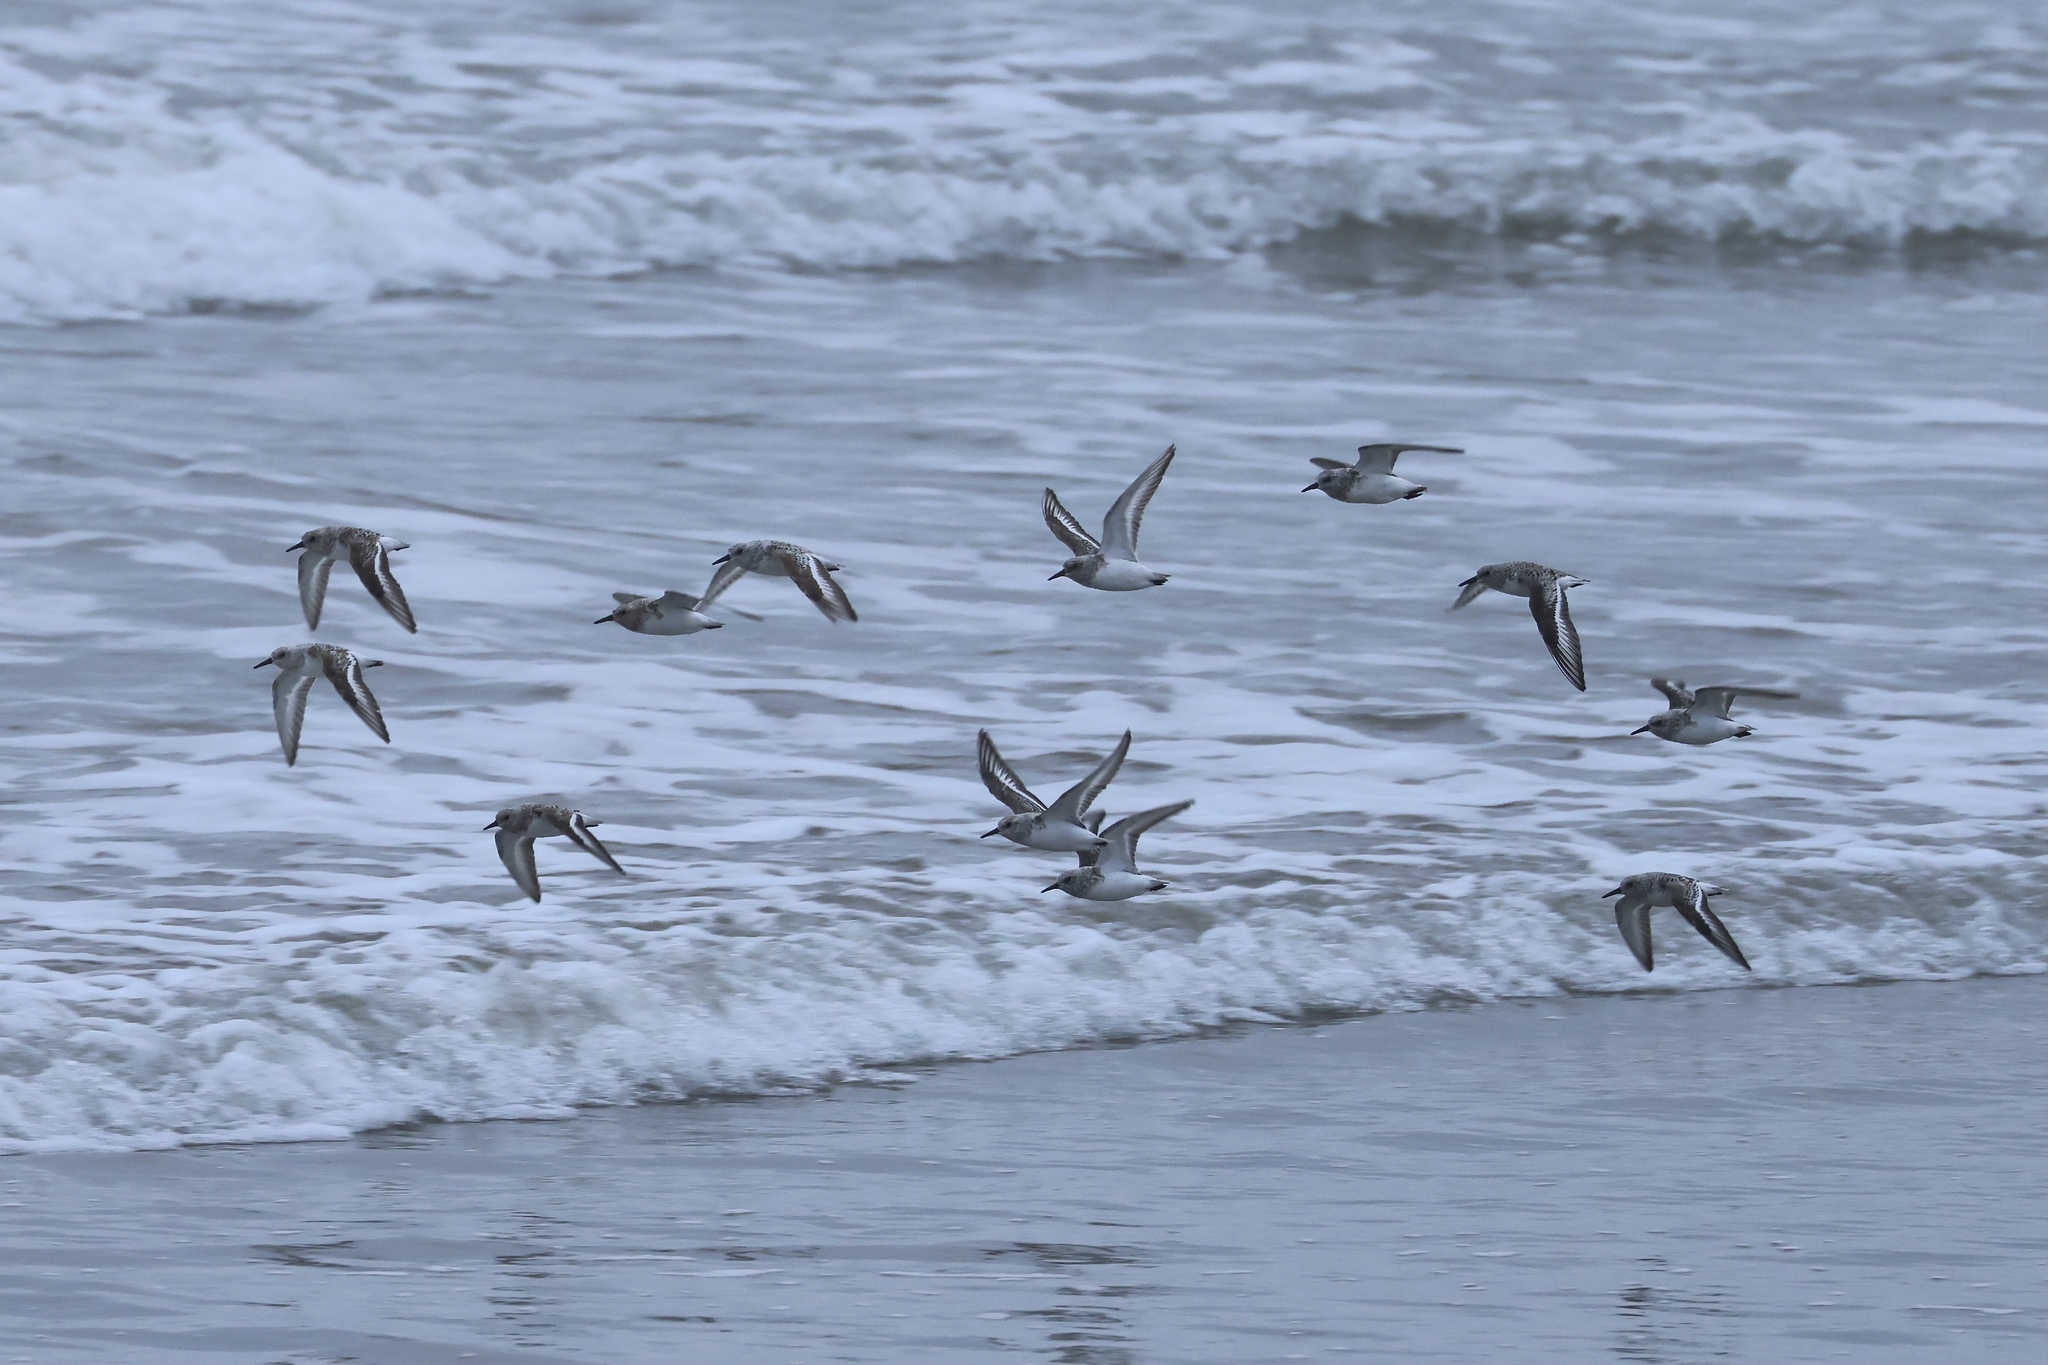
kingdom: Animalia
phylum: Chordata
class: Aves
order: Charadriiformes
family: Scolopacidae
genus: Calidris
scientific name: Calidris alba
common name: Sanderling
